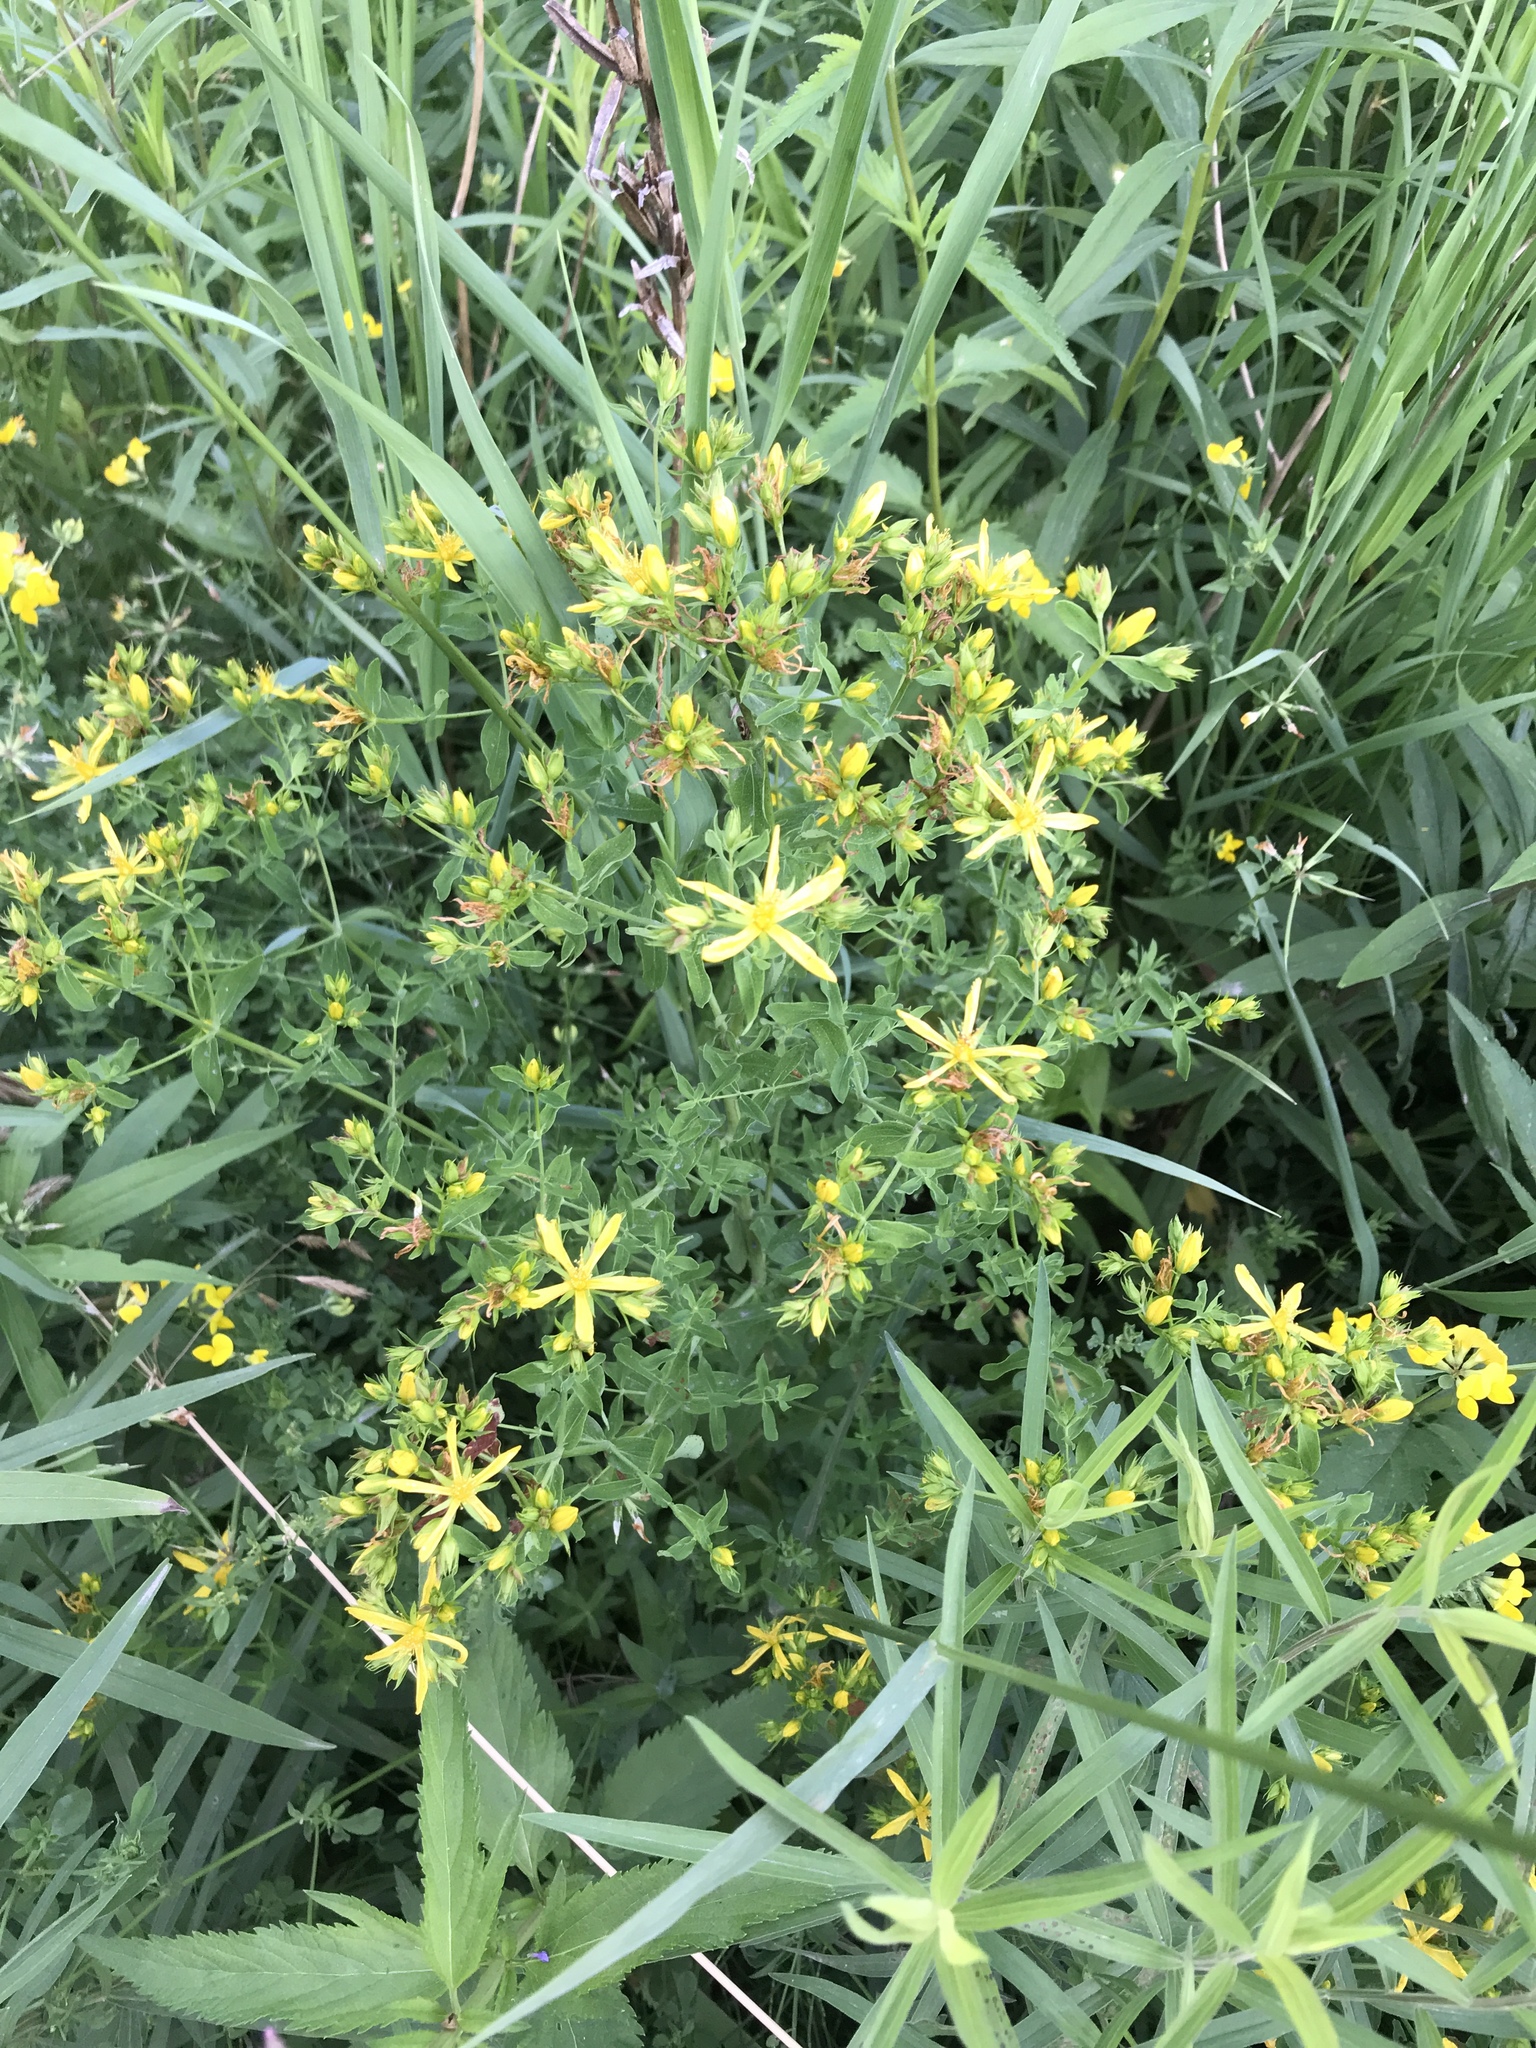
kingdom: Plantae
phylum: Tracheophyta
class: Magnoliopsida
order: Malpighiales
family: Hypericaceae
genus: Hypericum
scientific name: Hypericum perforatum
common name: Common st. johnswort
